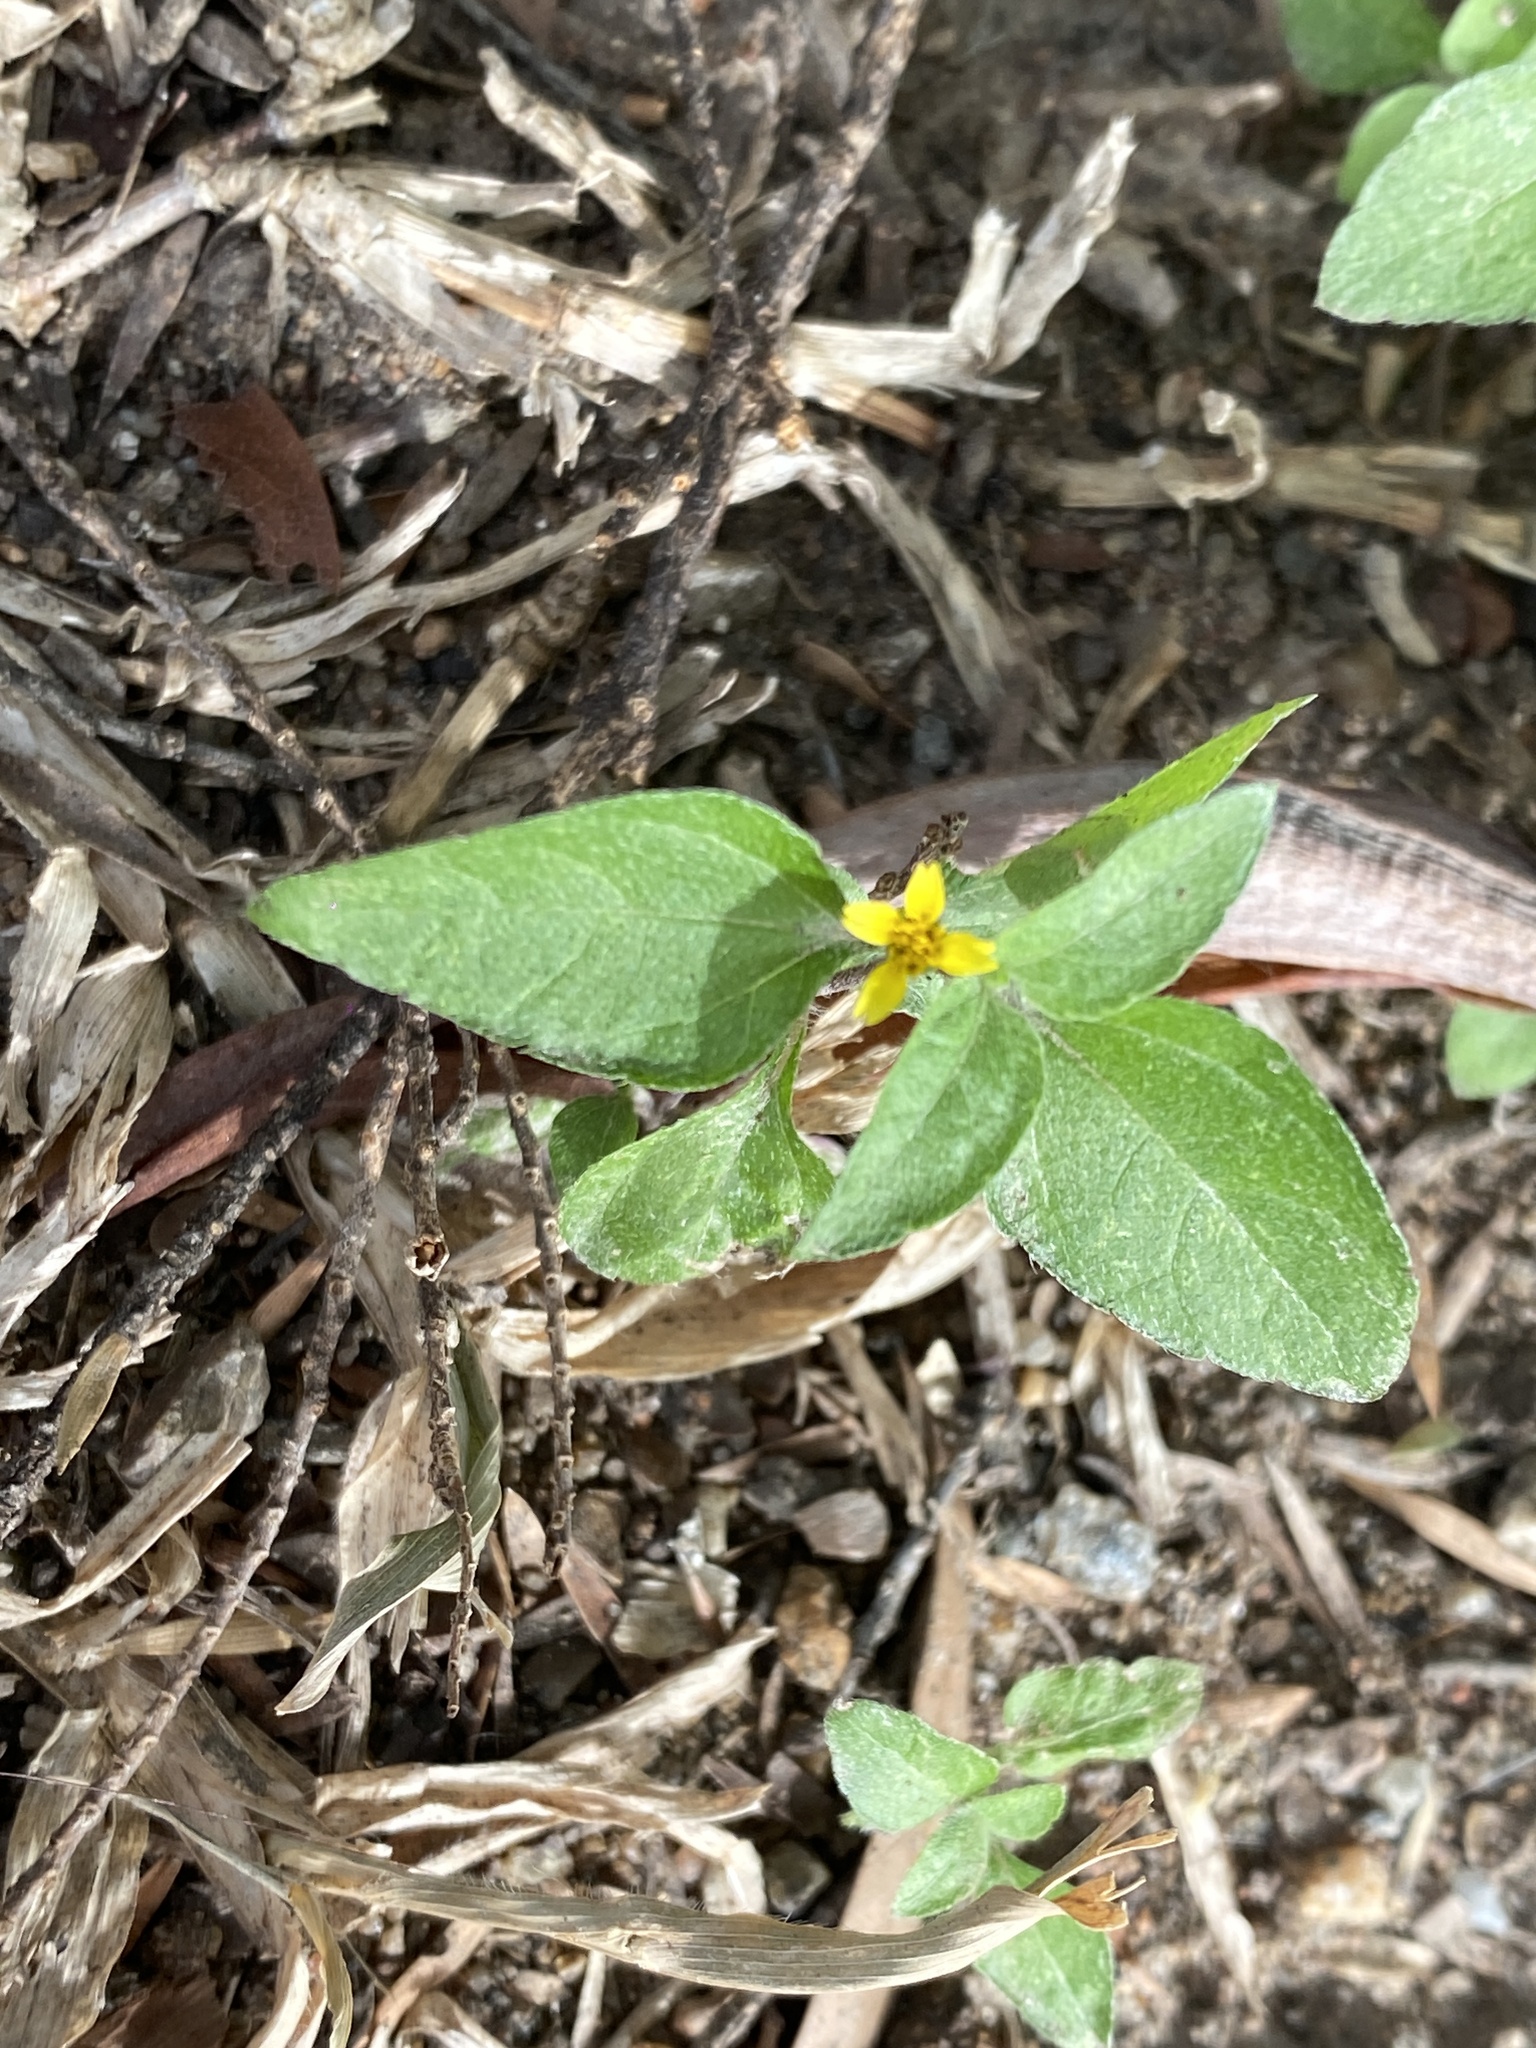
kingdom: Plantae
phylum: Tracheophyta
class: Magnoliopsida
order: Asterales
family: Asteraceae
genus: Calyptocarpus
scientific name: Calyptocarpus vialis
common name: Straggler daisy
